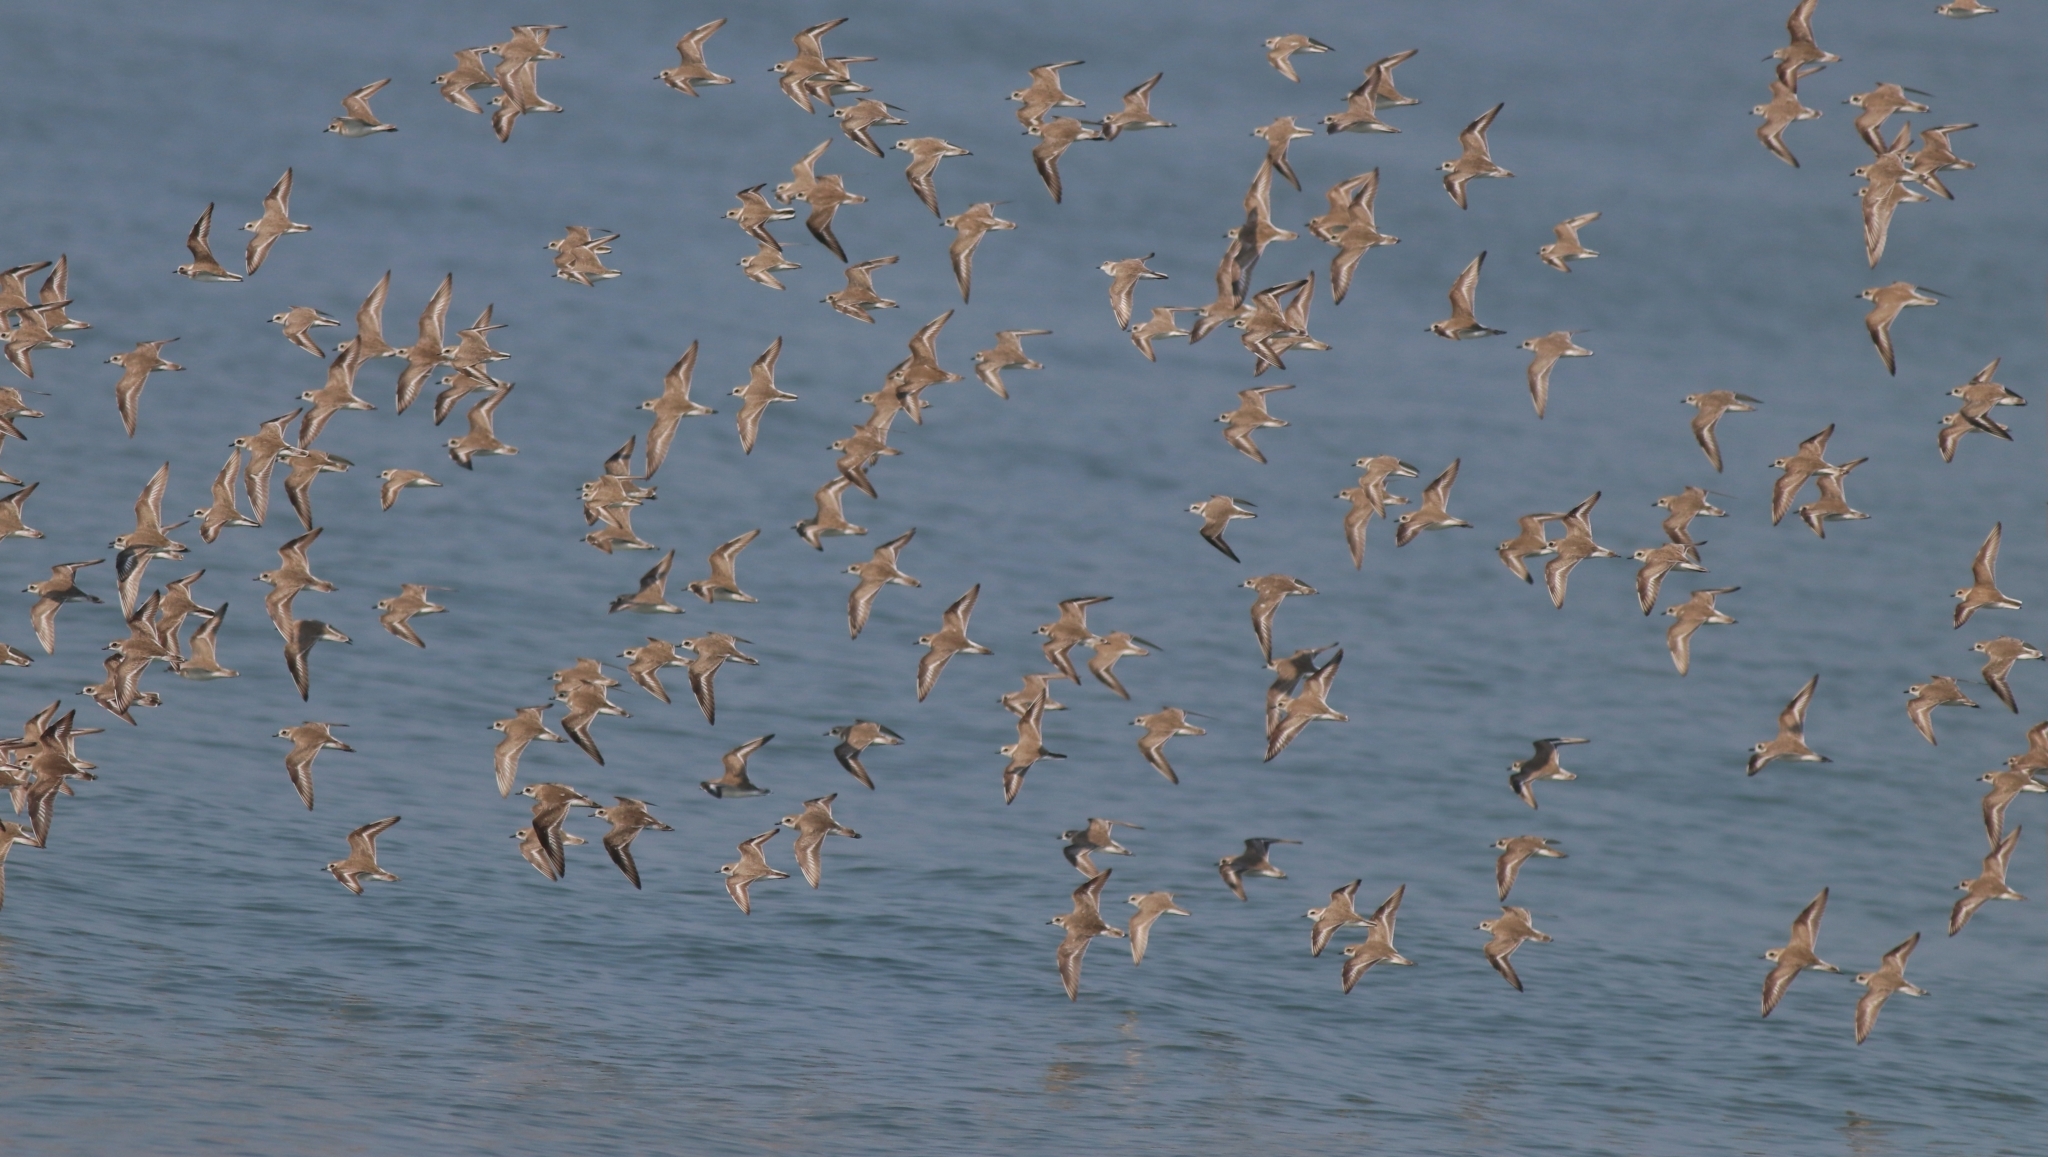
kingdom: Animalia
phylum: Chordata
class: Aves
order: Charadriiformes
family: Charadriidae
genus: Charadrius
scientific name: Charadrius alexandrinus
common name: Kentish plover
